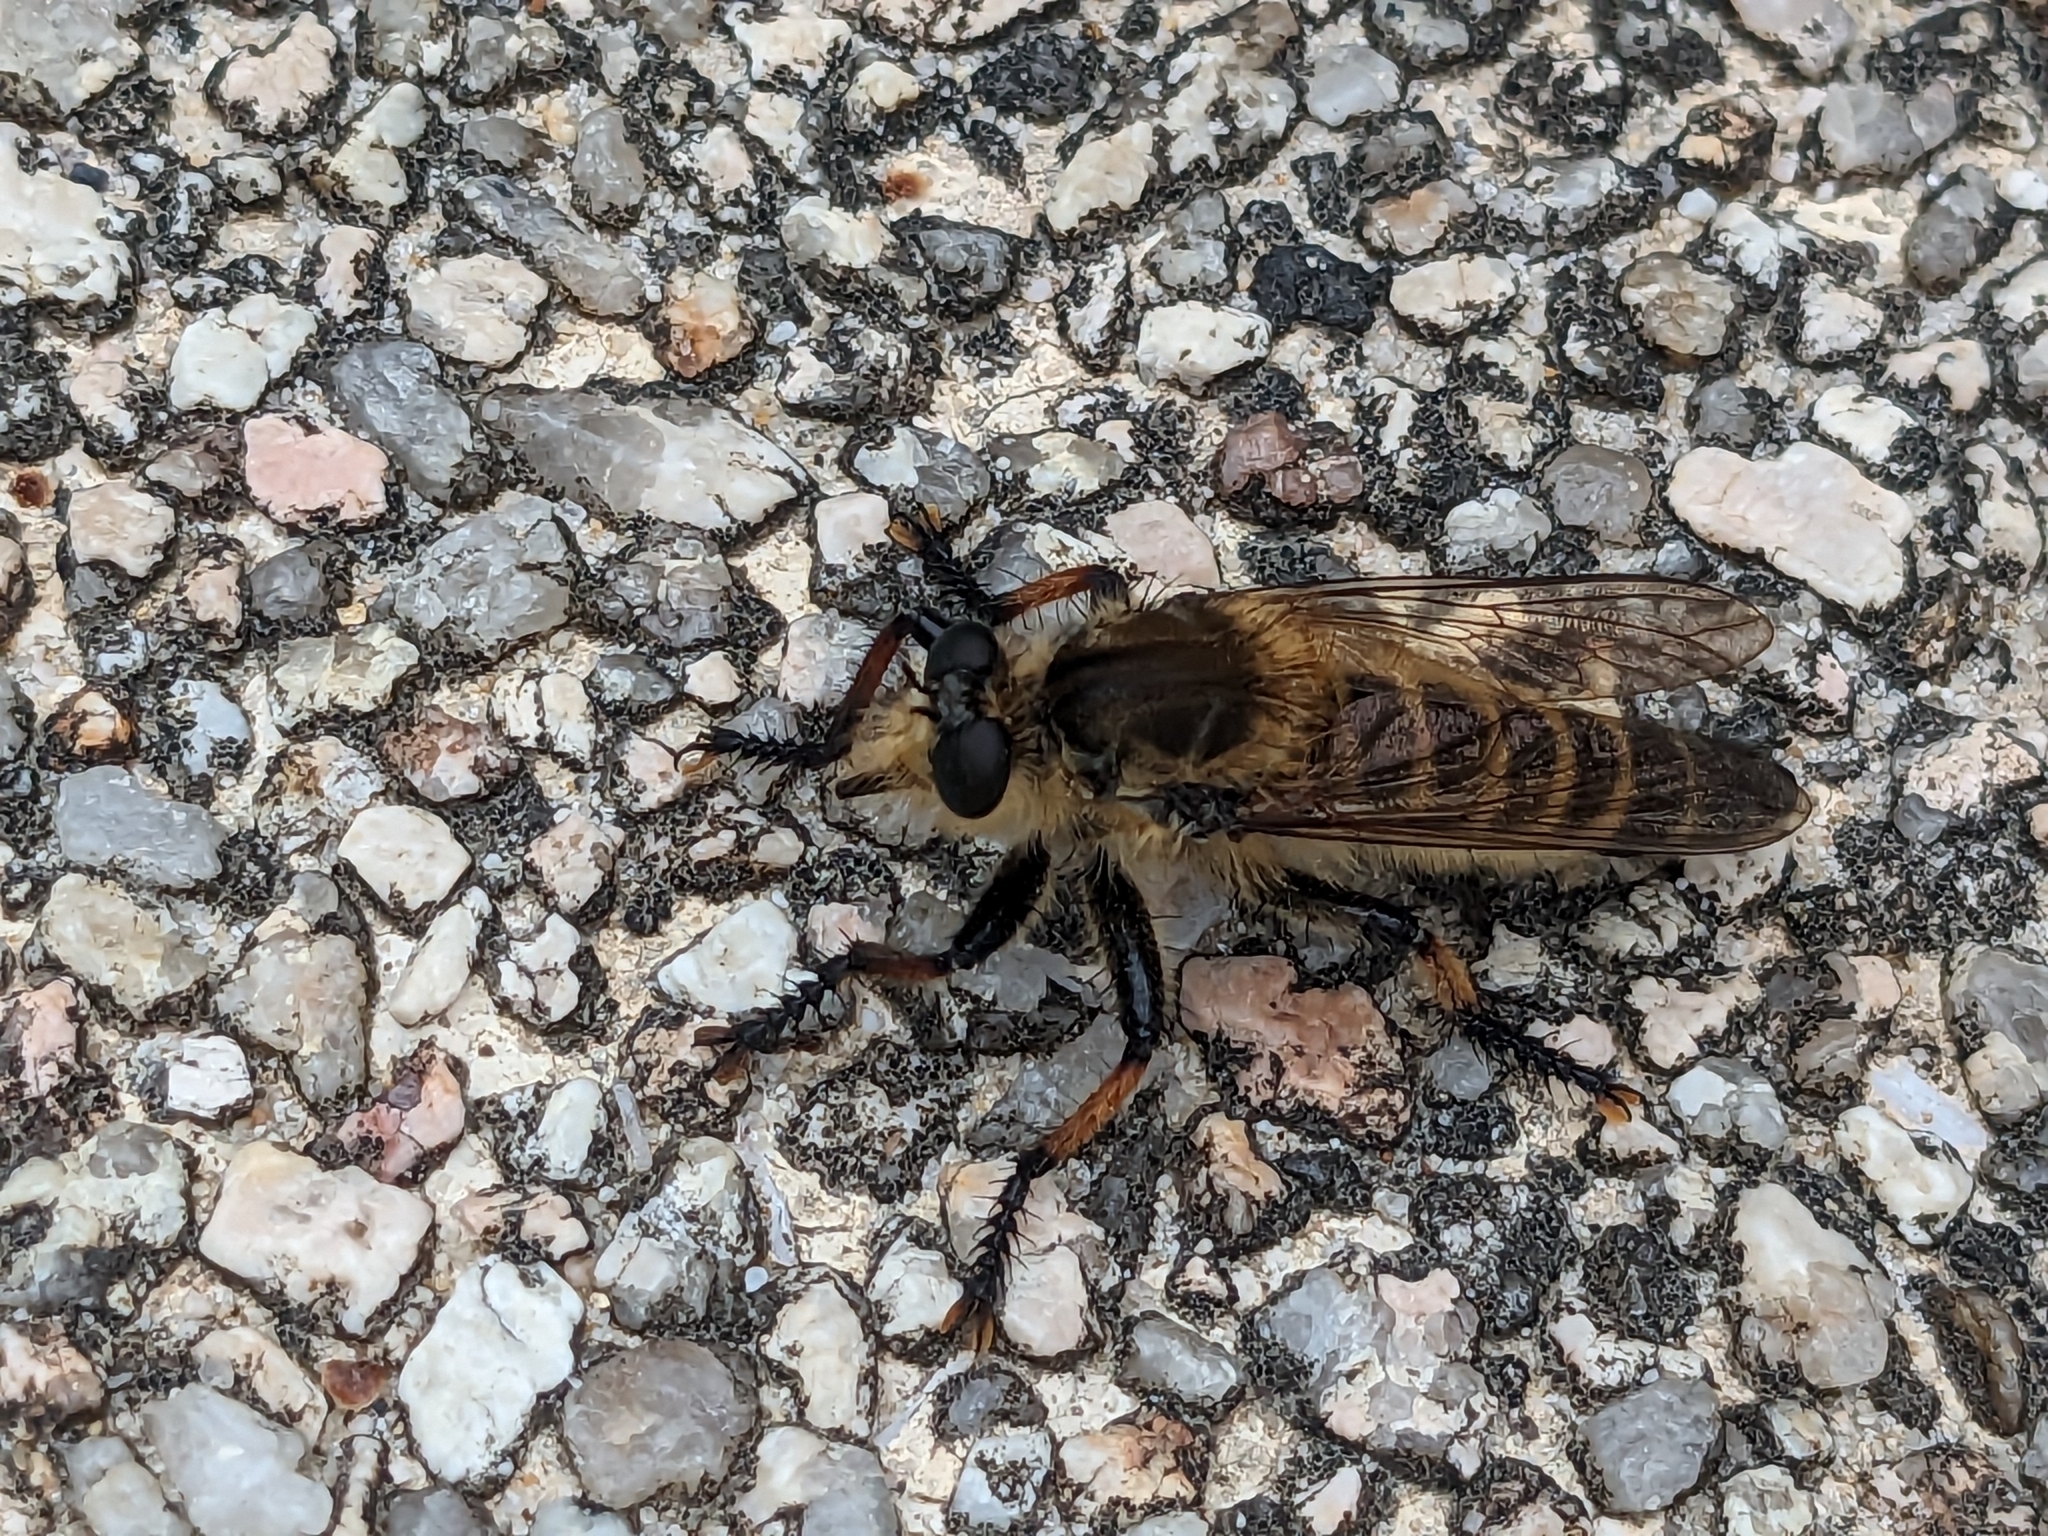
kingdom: Animalia
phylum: Arthropoda
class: Insecta
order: Diptera
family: Asilidae
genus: Promachus
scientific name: Promachus yesonicus
